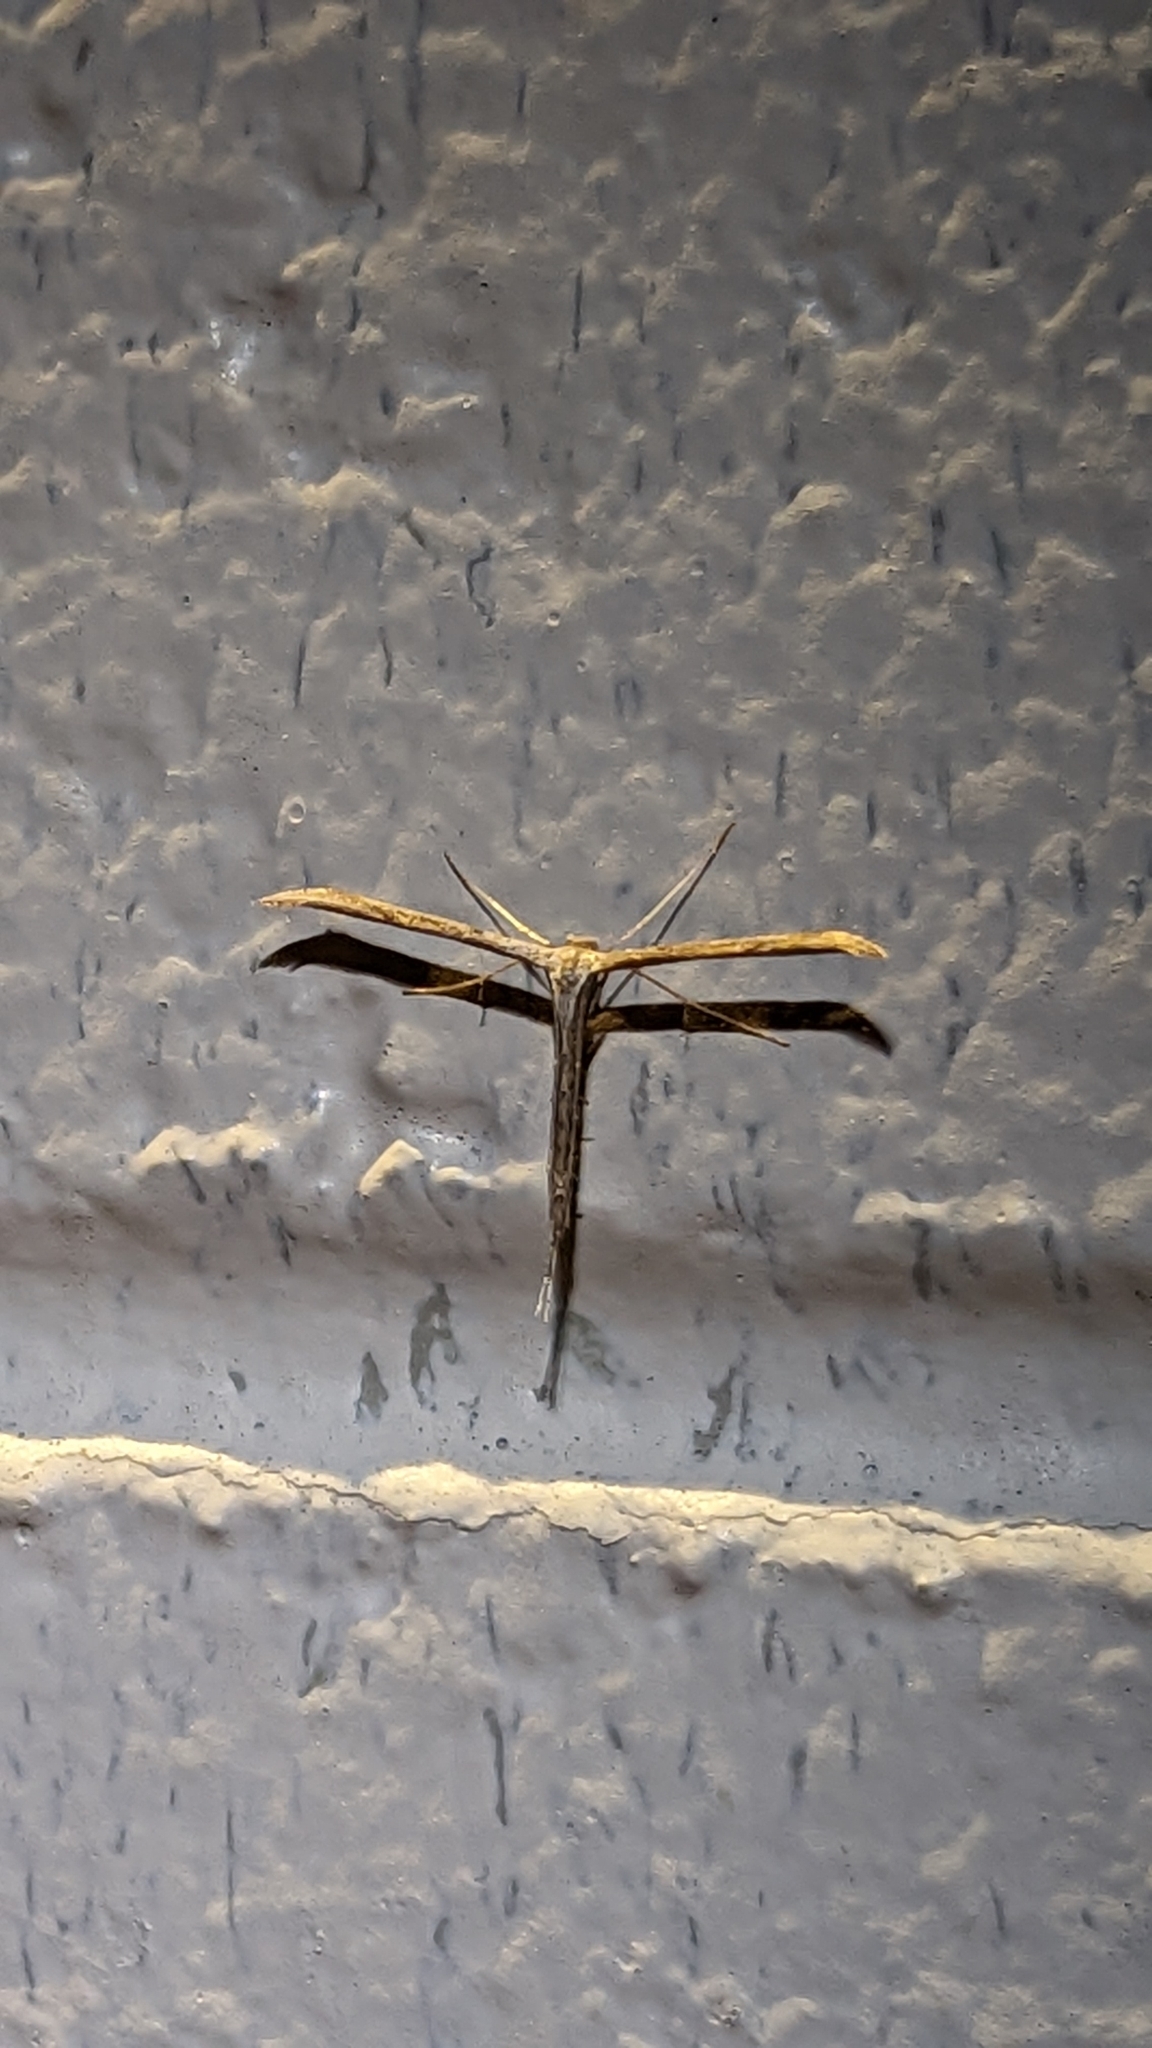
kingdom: Animalia
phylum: Arthropoda
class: Insecta
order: Lepidoptera
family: Pterophoridae
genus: Emmelina
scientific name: Emmelina monodactyla
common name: Common plume
